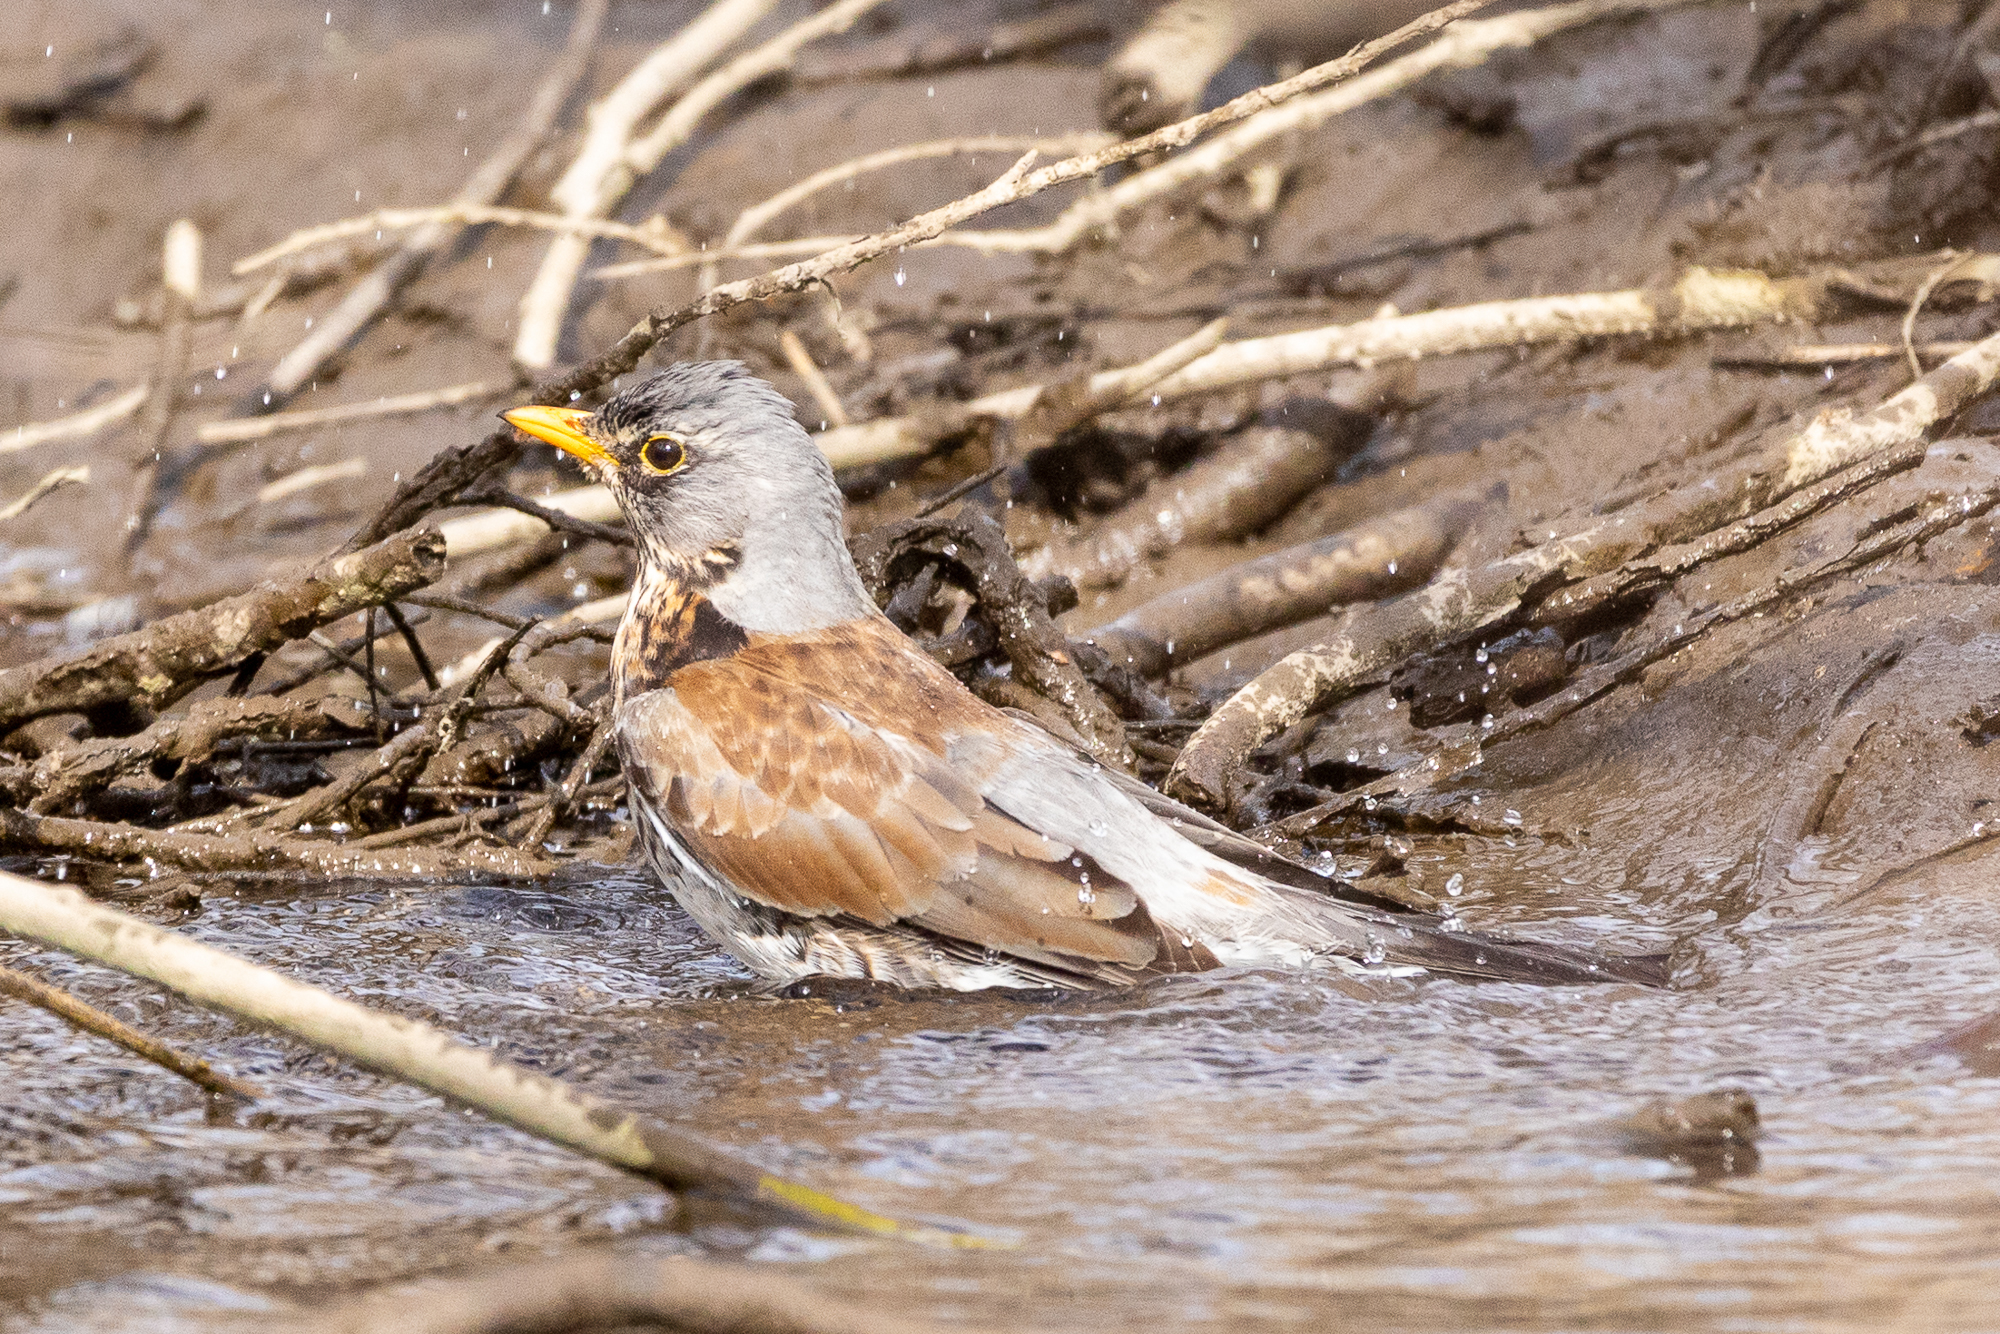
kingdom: Animalia
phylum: Chordata
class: Aves
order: Passeriformes
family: Turdidae
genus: Turdus
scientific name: Turdus pilaris
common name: Fieldfare
